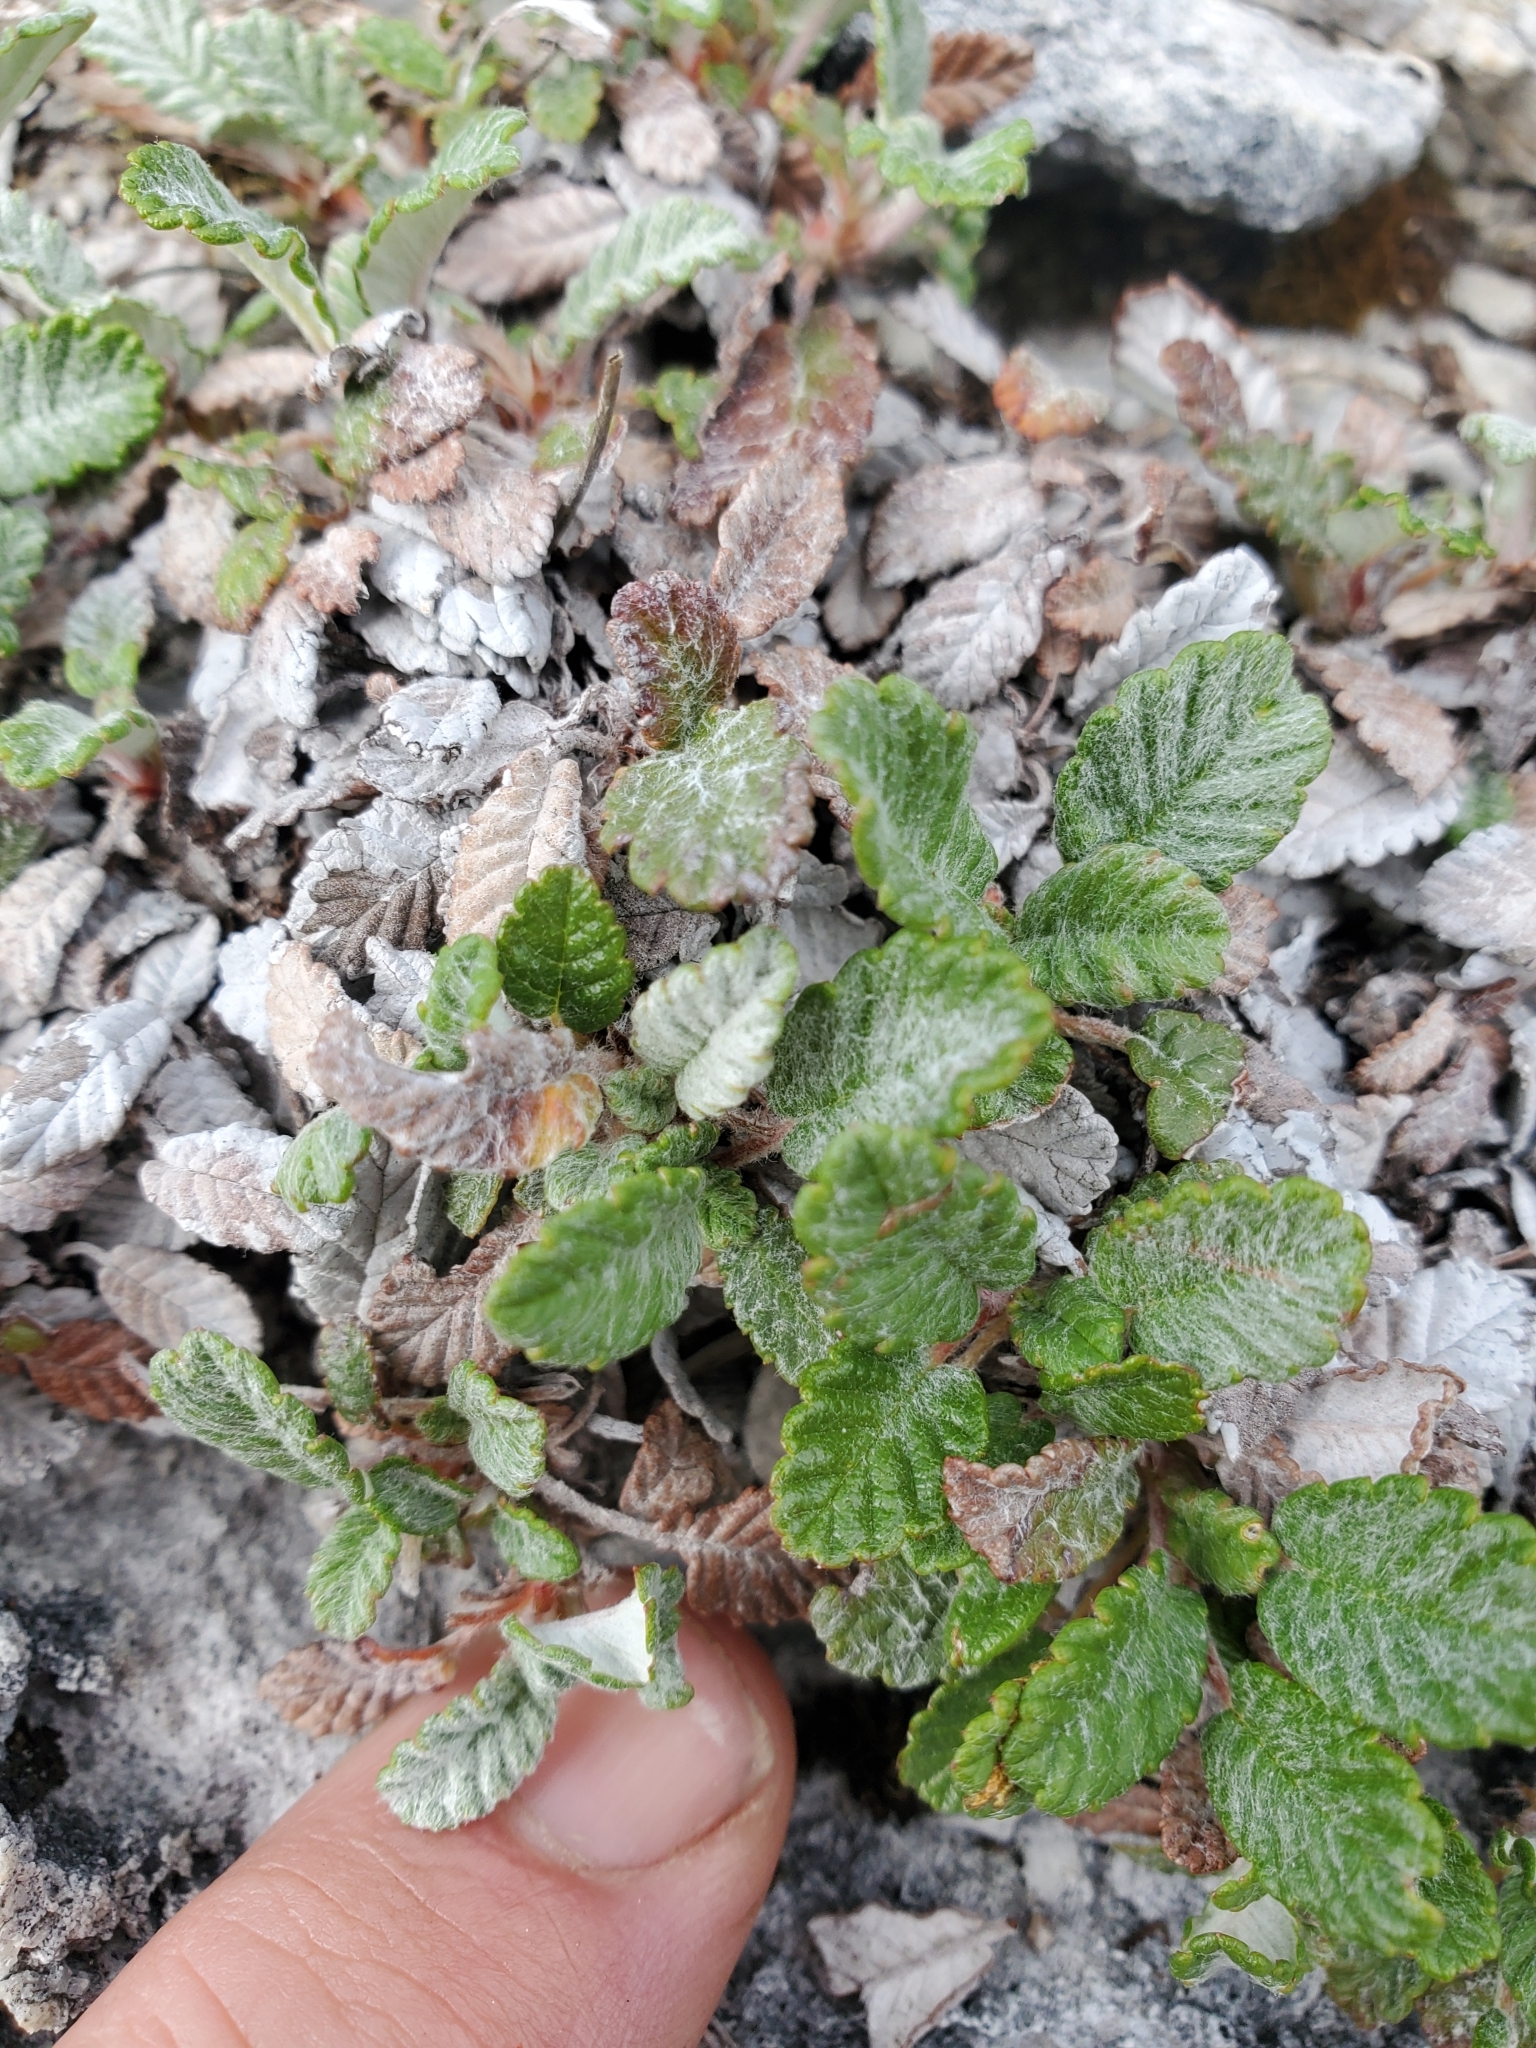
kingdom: Plantae
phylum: Tracheophyta
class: Magnoliopsida
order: Rosales
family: Rosaceae
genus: Dryas
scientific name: Dryas drummondii
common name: Drummond's dryad
